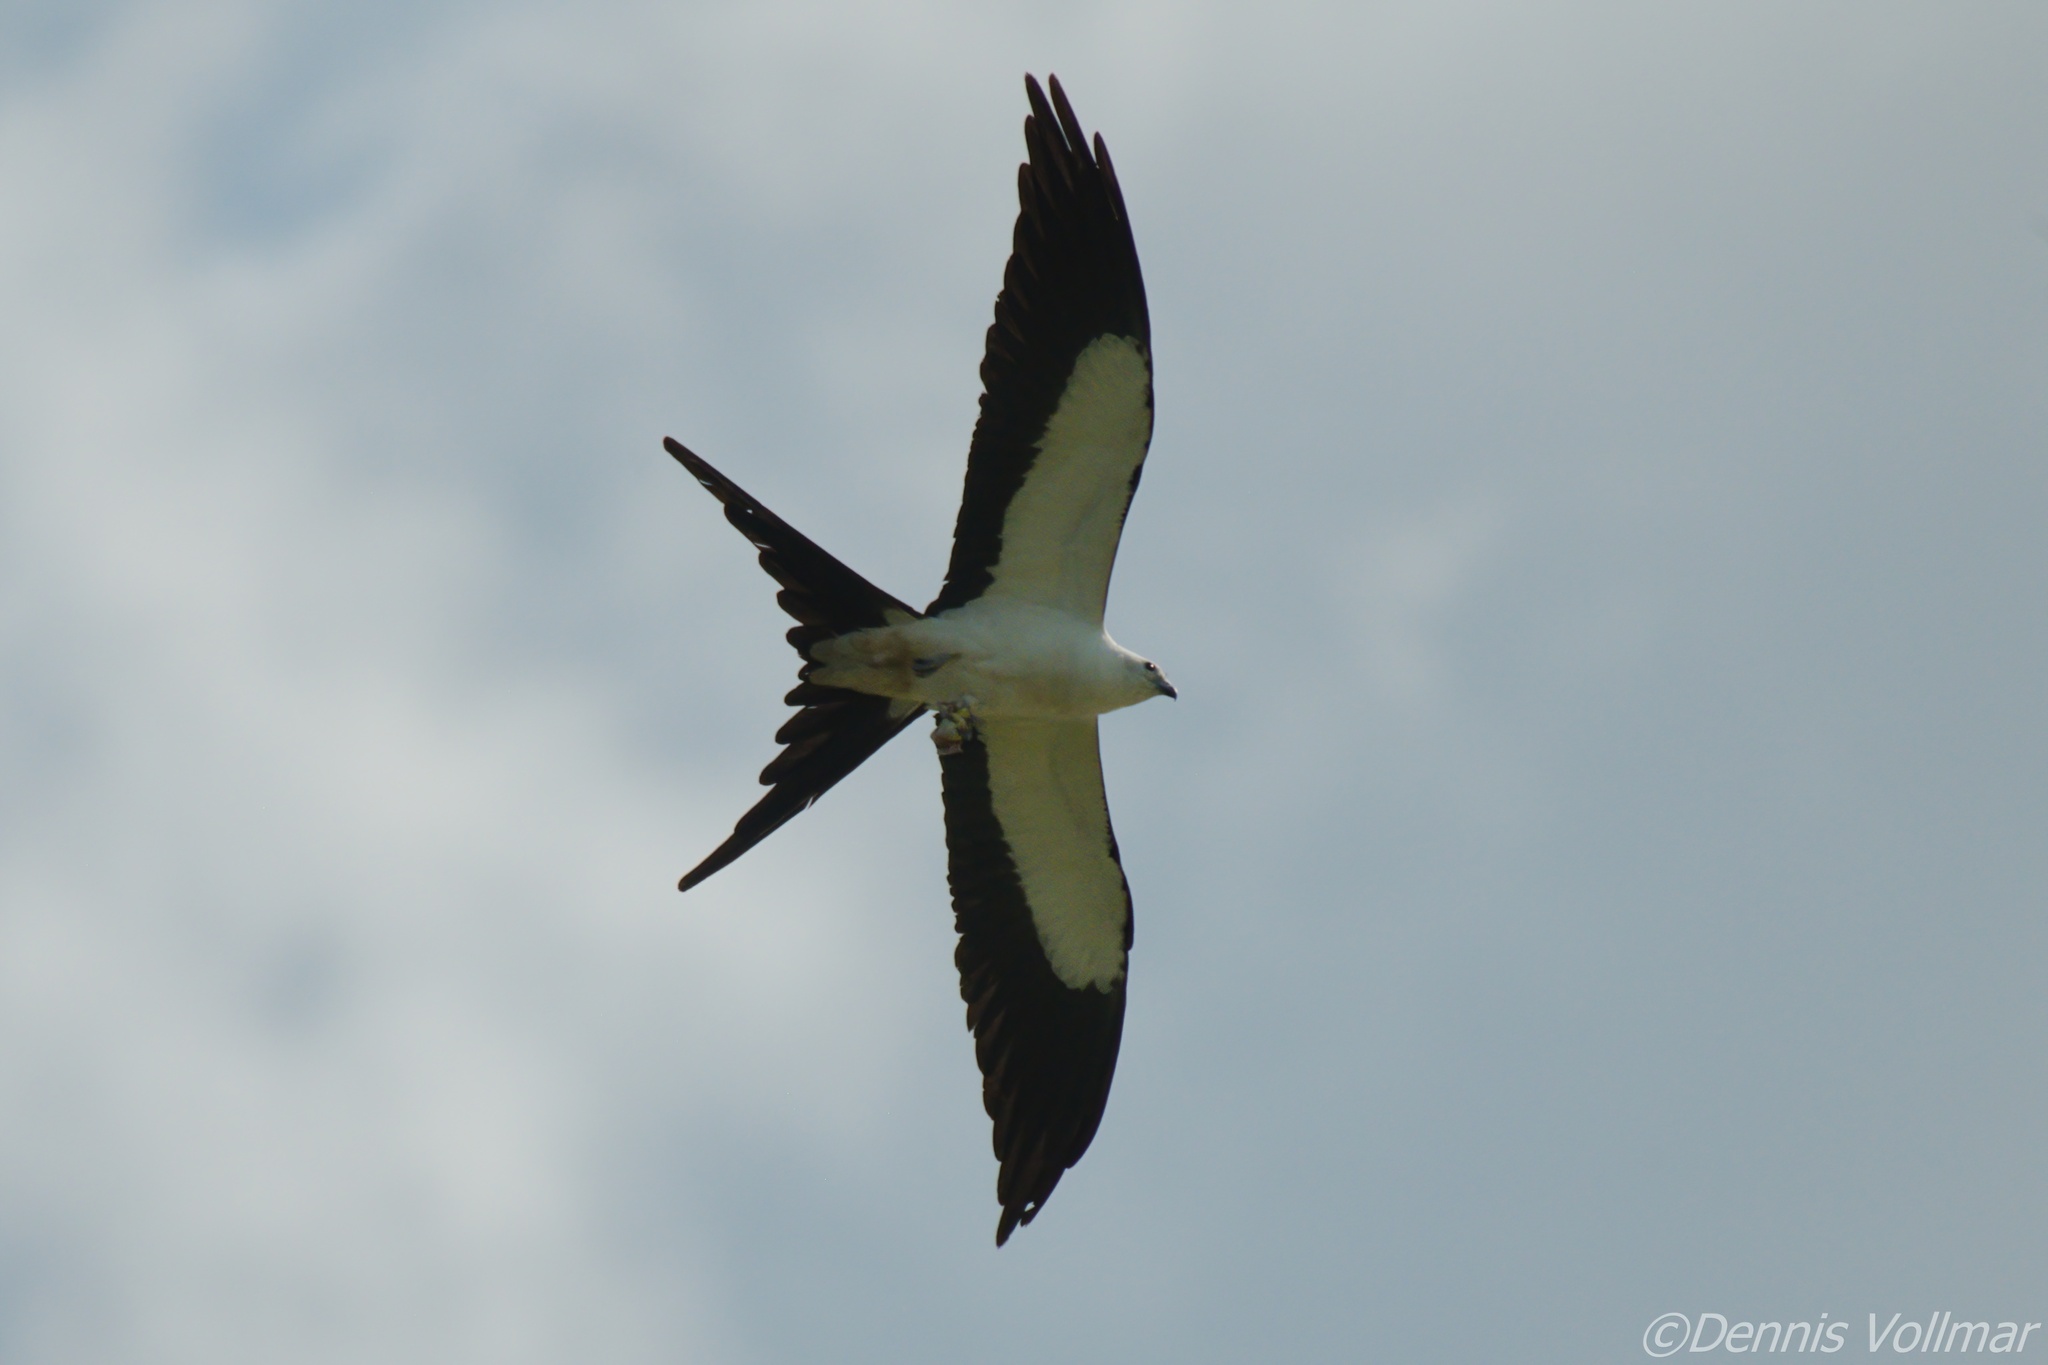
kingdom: Animalia
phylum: Chordata
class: Aves
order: Accipitriformes
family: Accipitridae
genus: Elanoides
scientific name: Elanoides forficatus
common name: Swallow-tailed kite
